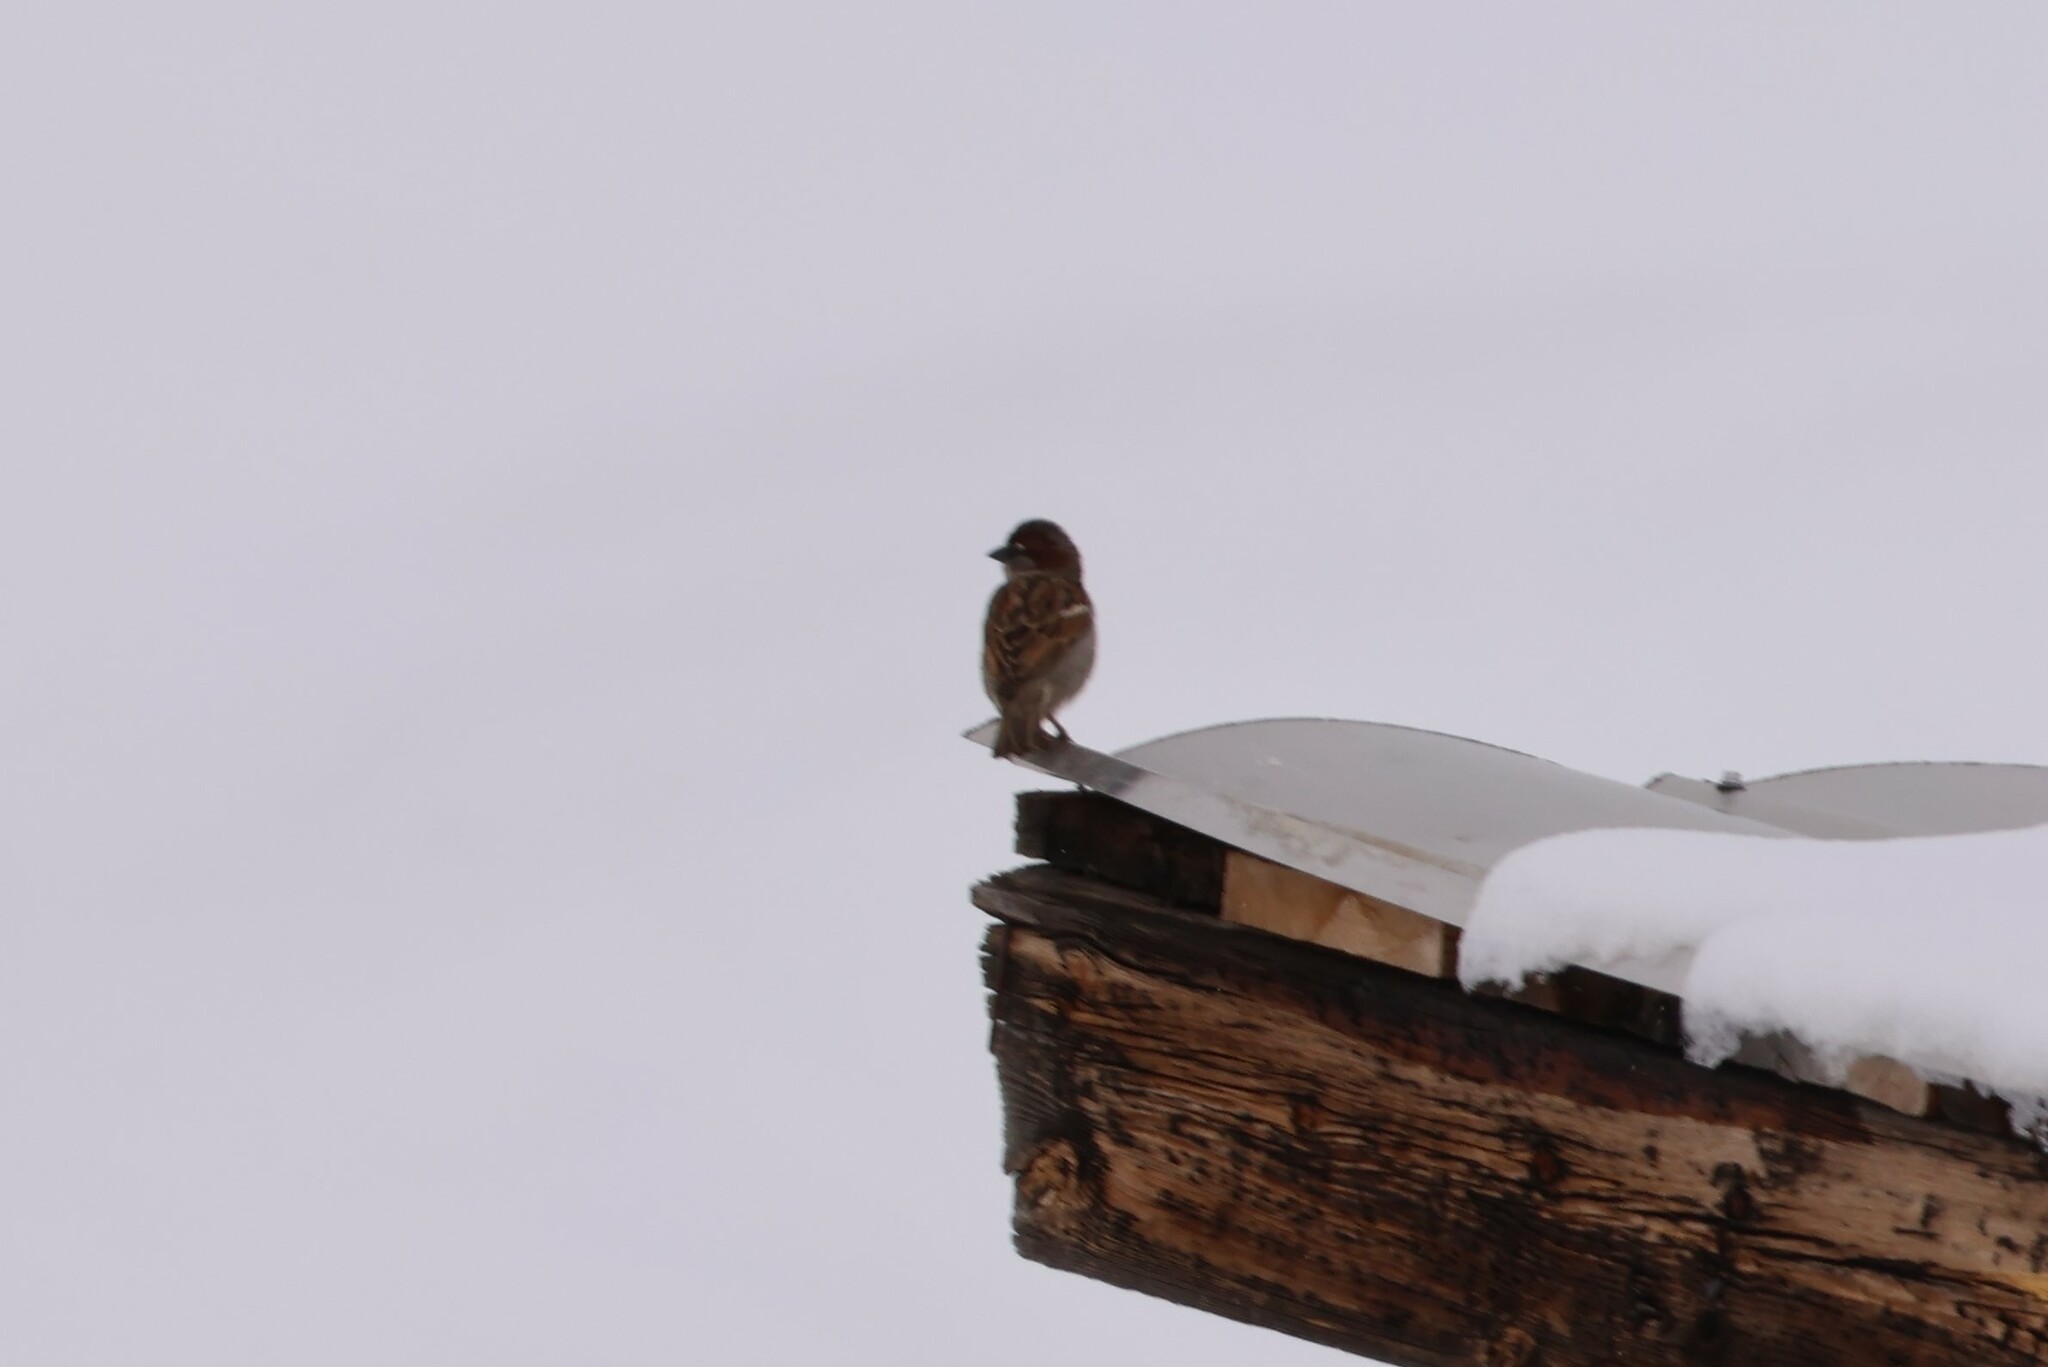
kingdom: Animalia
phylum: Chordata
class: Aves
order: Passeriformes
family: Passeridae
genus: Passer
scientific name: Passer domesticus
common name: House sparrow
